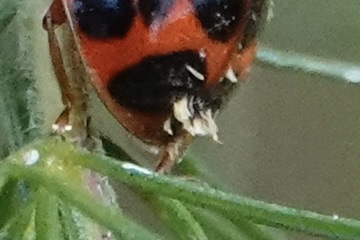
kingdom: Fungi
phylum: Ascomycota
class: Laboulbeniomycetes
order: Laboulbeniales
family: Laboulbeniaceae
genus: Hesperomyces
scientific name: Hesperomyces harmoniae
